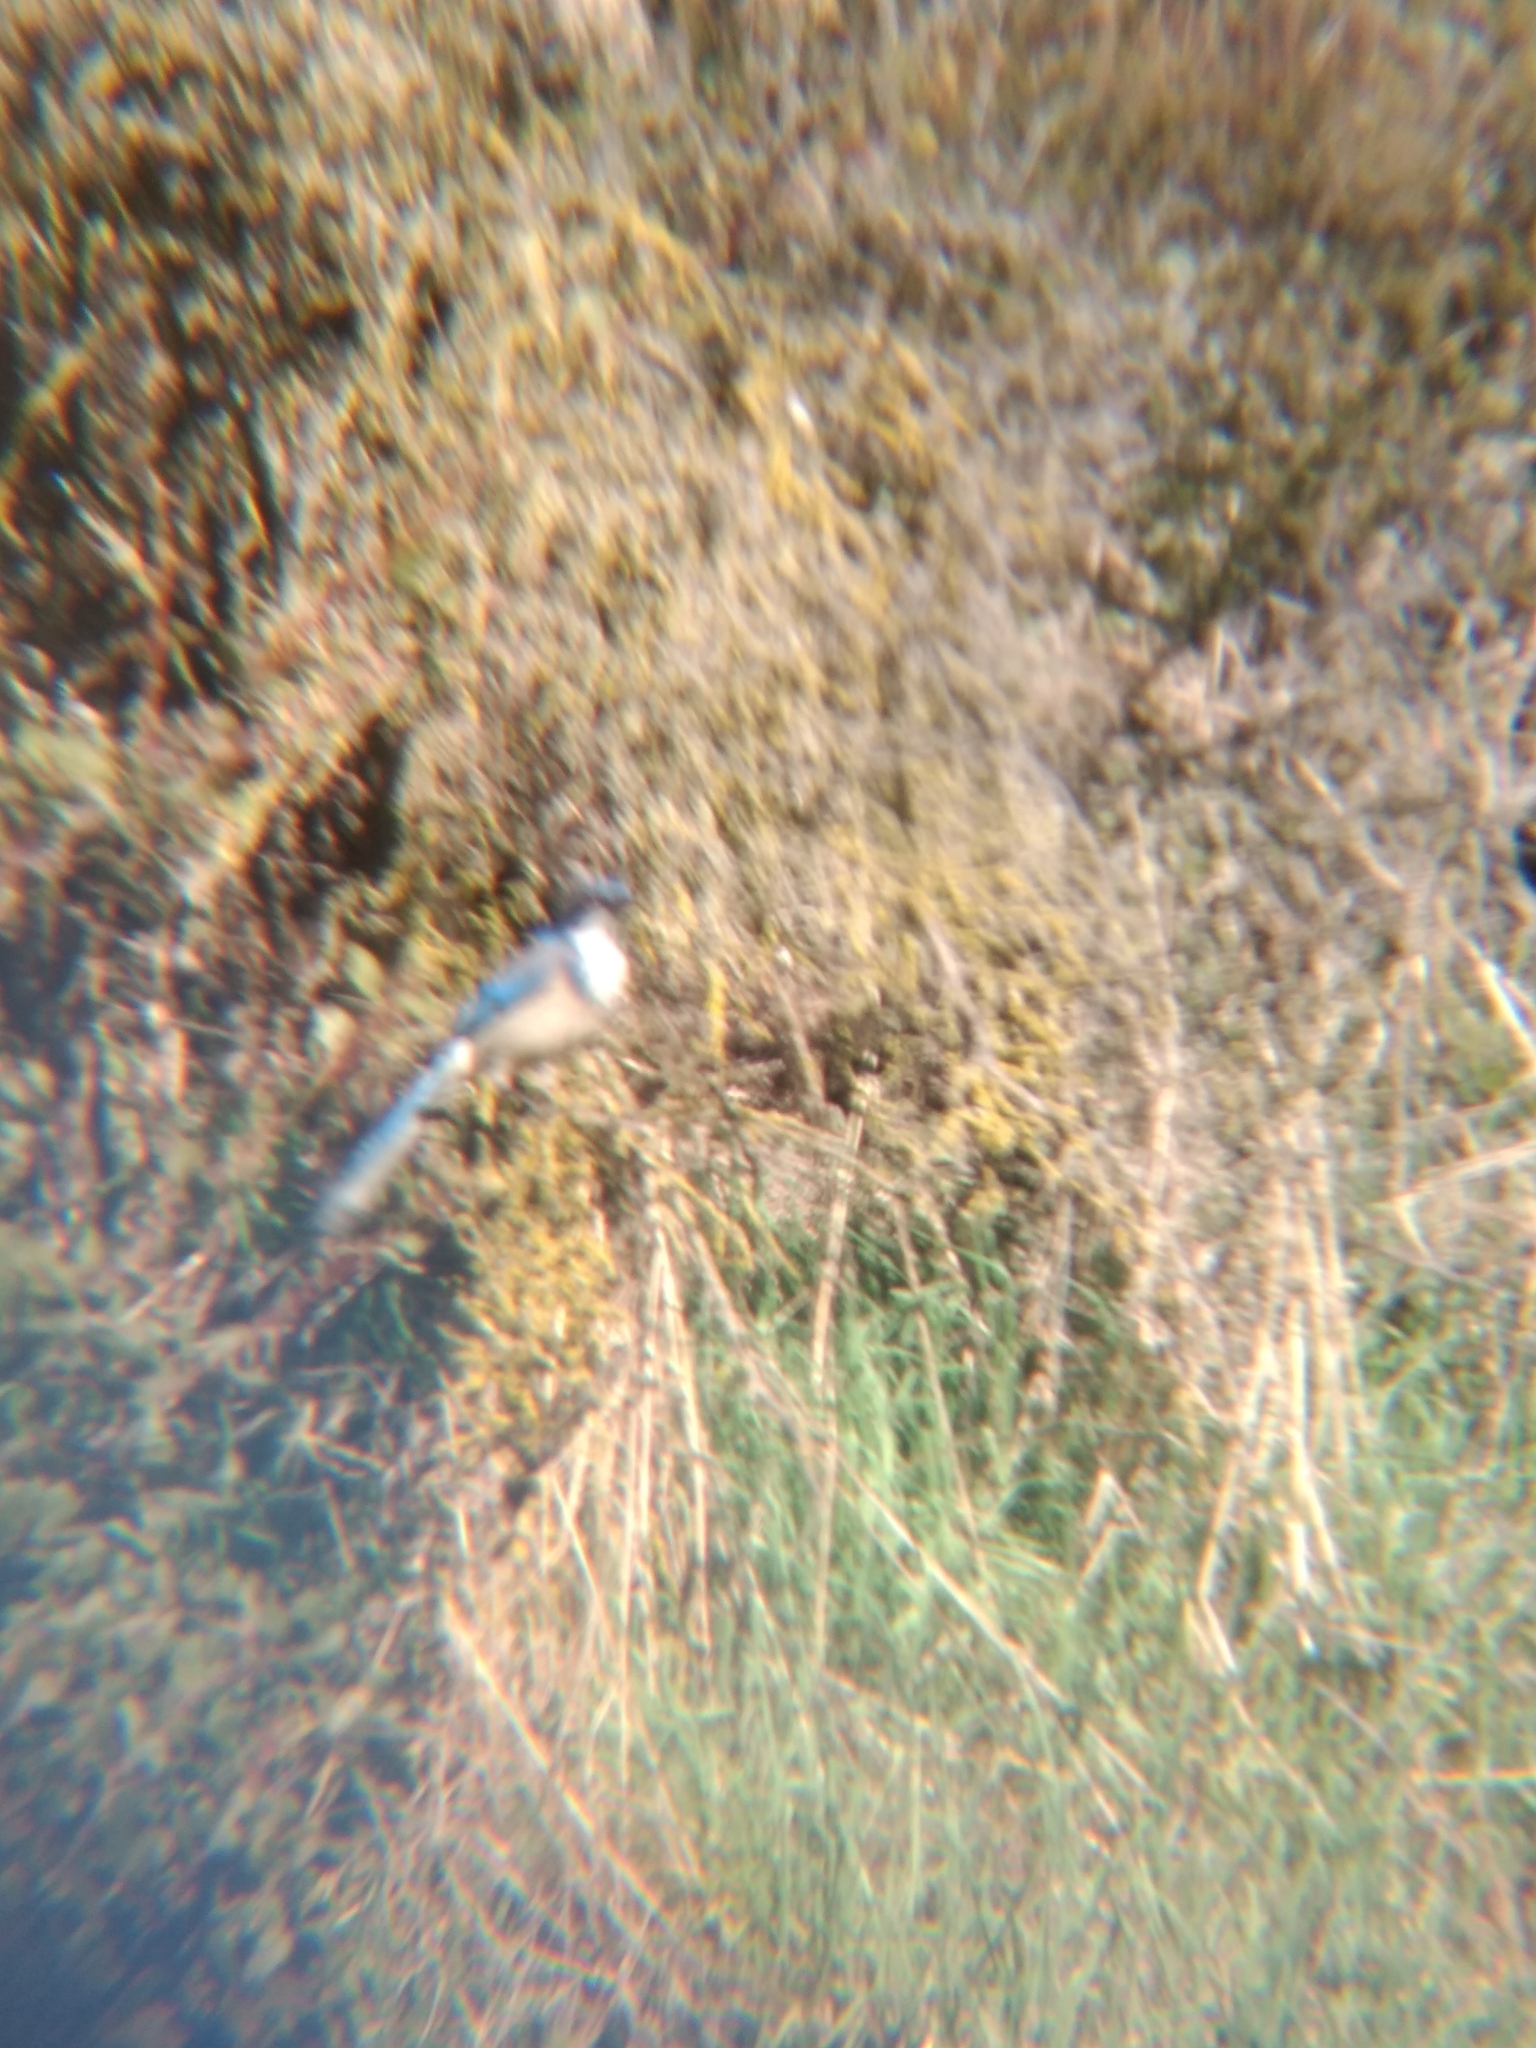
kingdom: Animalia
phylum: Chordata
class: Aves
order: Passeriformes
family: Corvidae
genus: Aphelocoma
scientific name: Aphelocoma californica
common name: California scrub-jay
